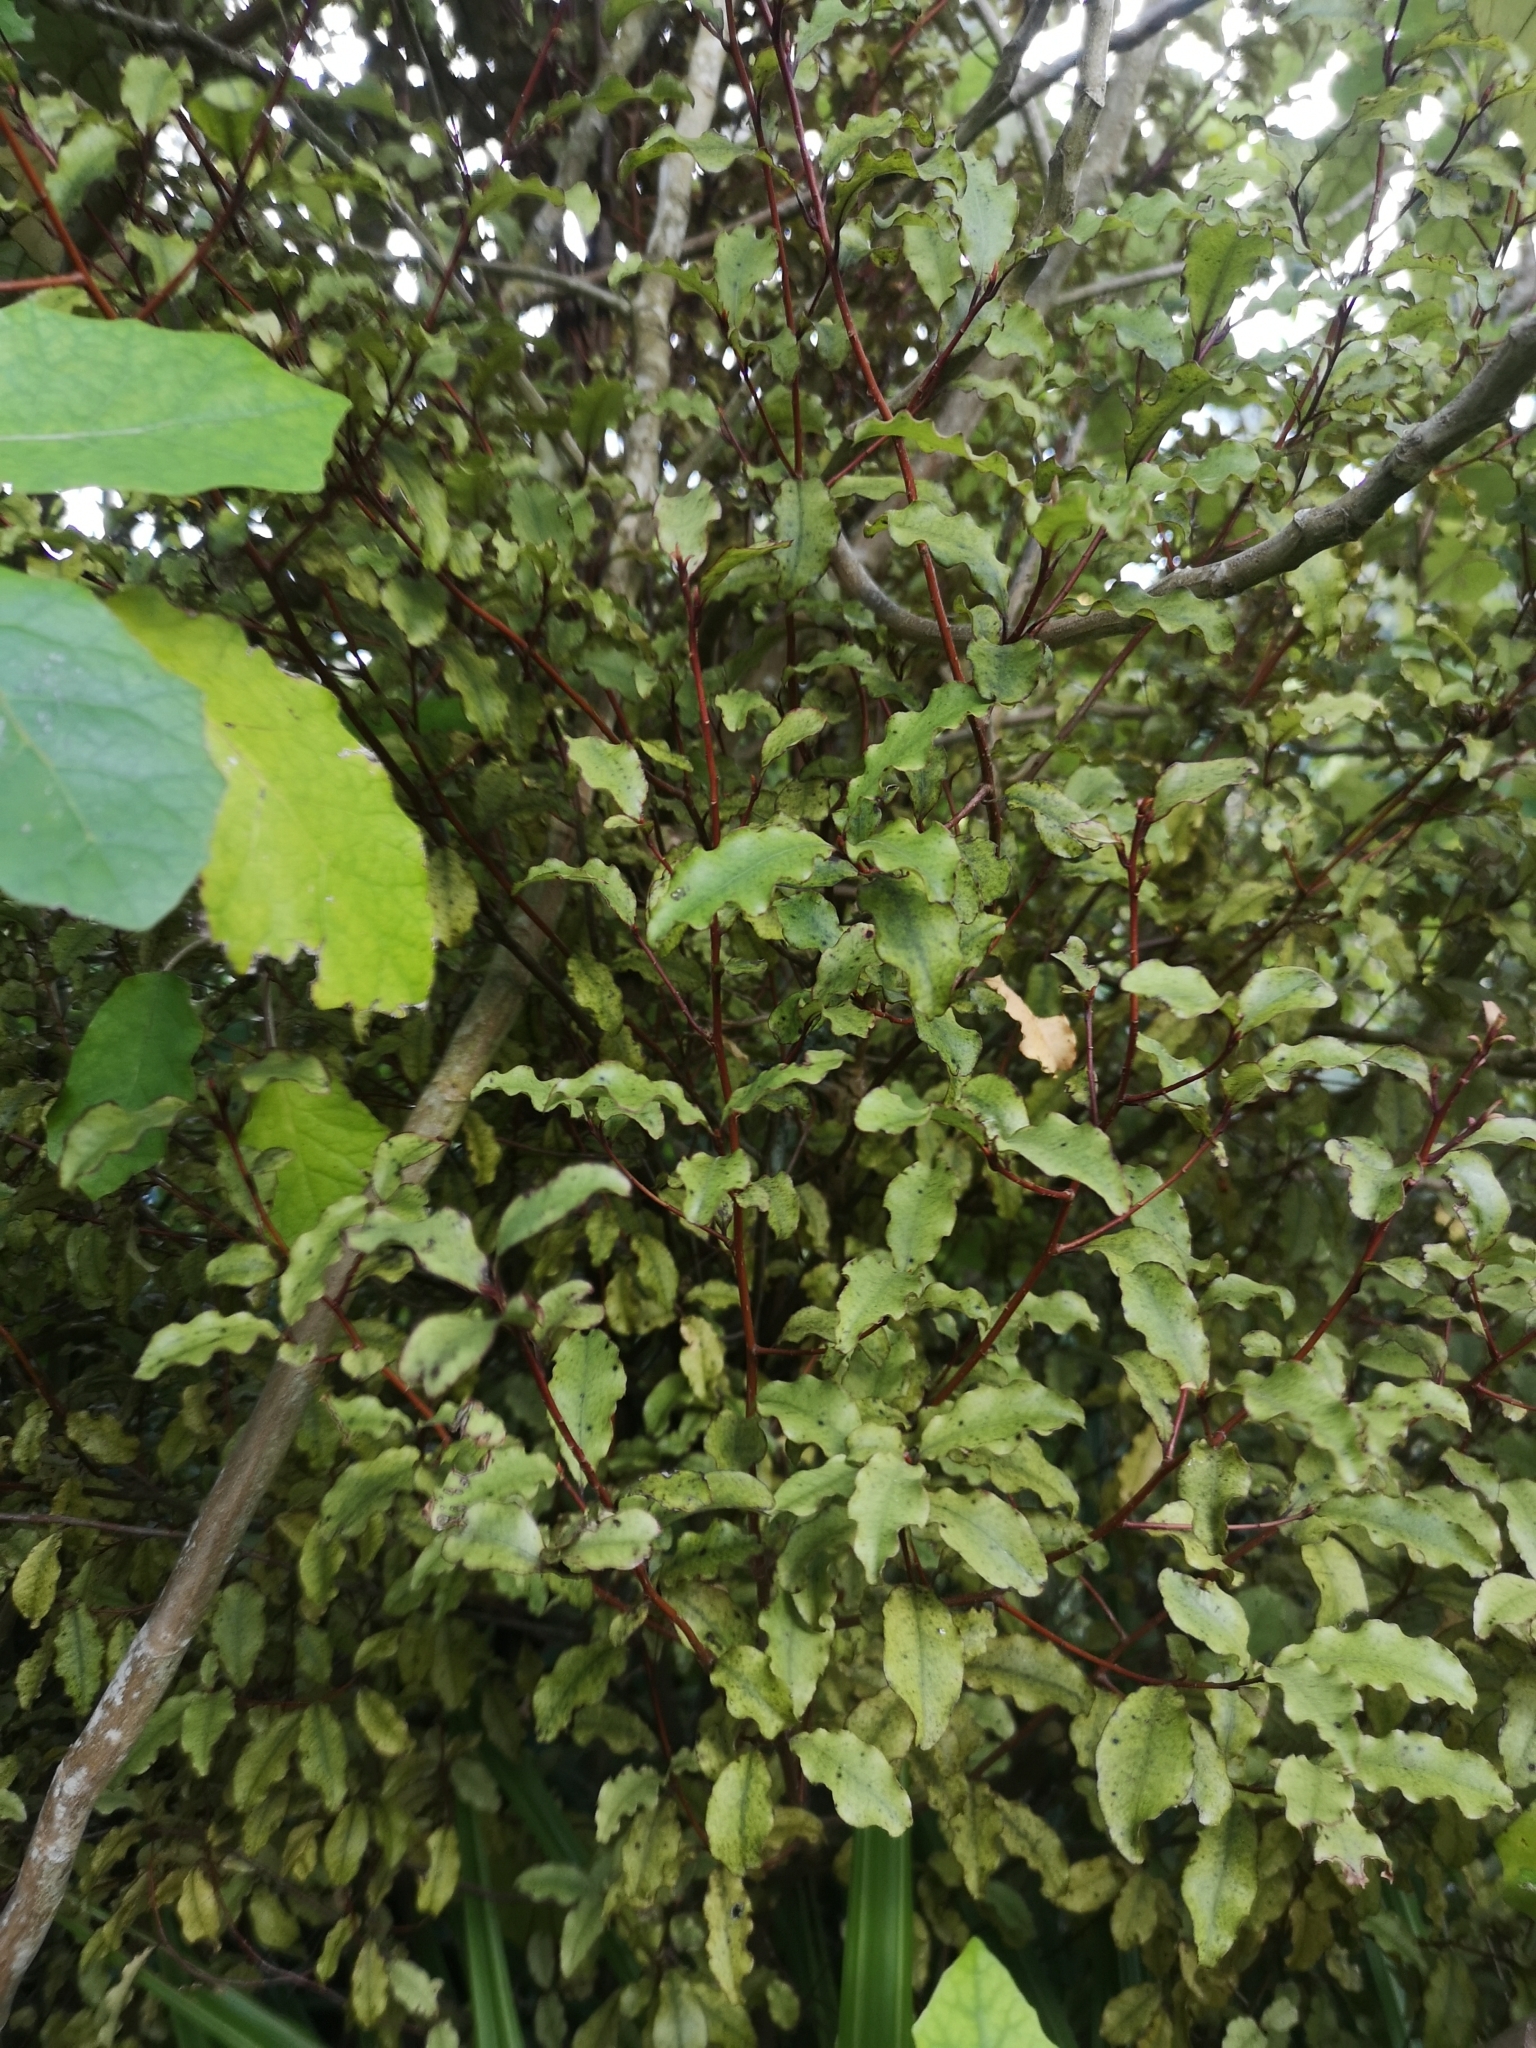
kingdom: Plantae
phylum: Tracheophyta
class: Magnoliopsida
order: Ericales
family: Primulaceae
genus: Myrsine
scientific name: Myrsine australis
